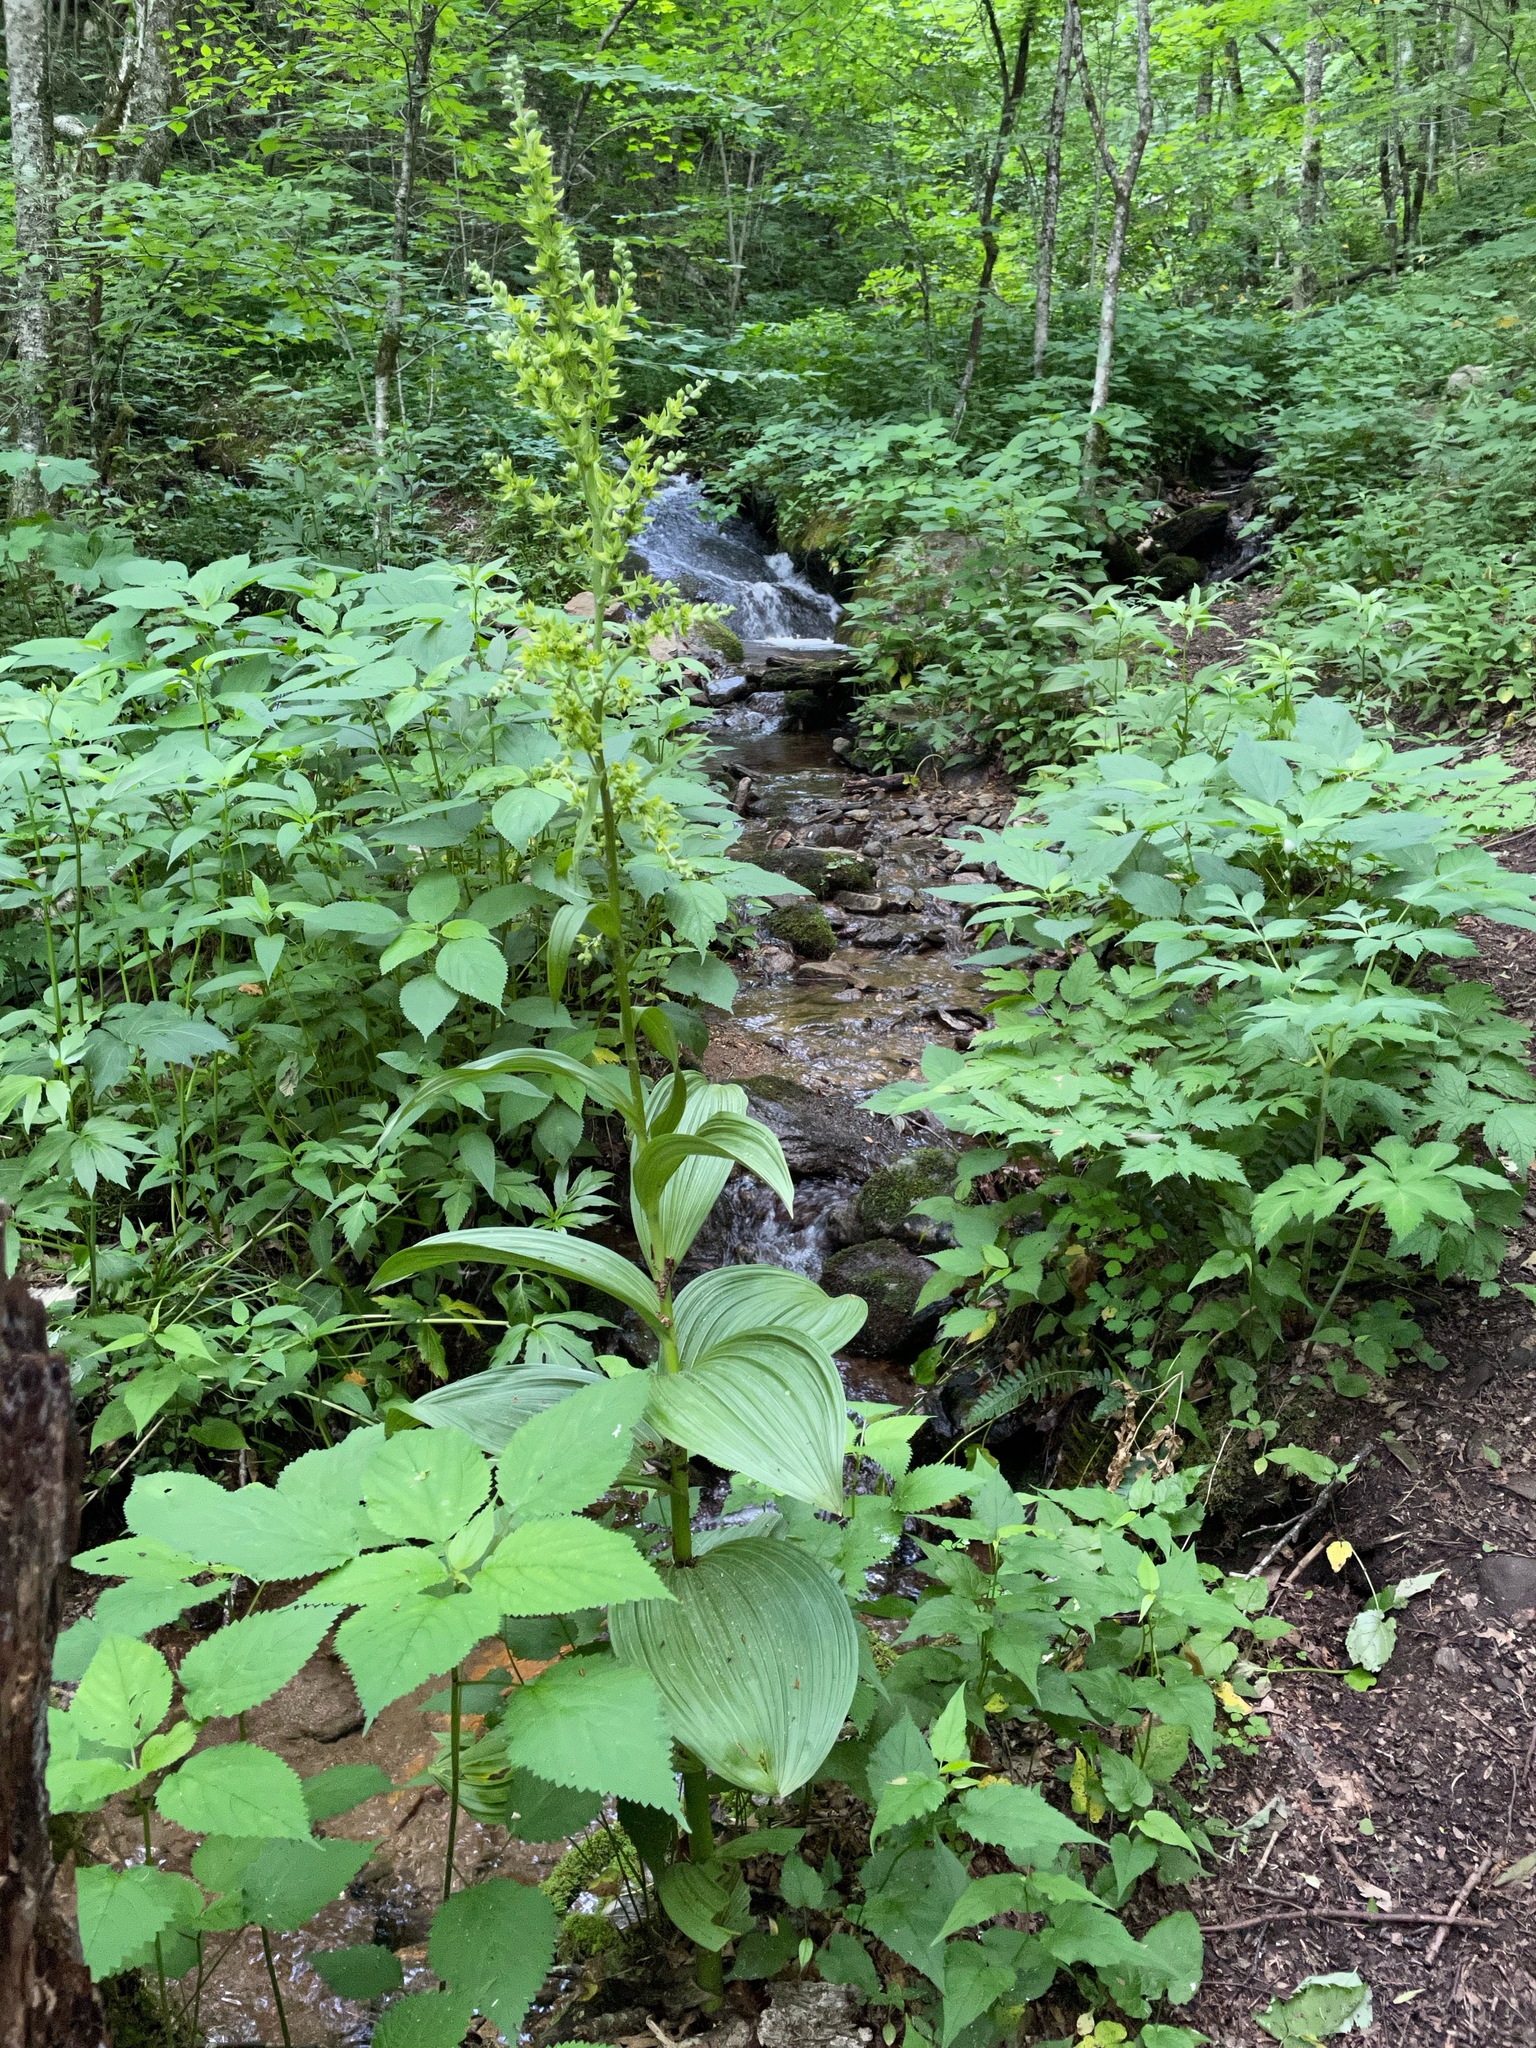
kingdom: Plantae
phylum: Tracheophyta
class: Liliopsida
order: Liliales
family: Melanthiaceae
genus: Veratrum
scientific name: Veratrum viride
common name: American false hellebore
